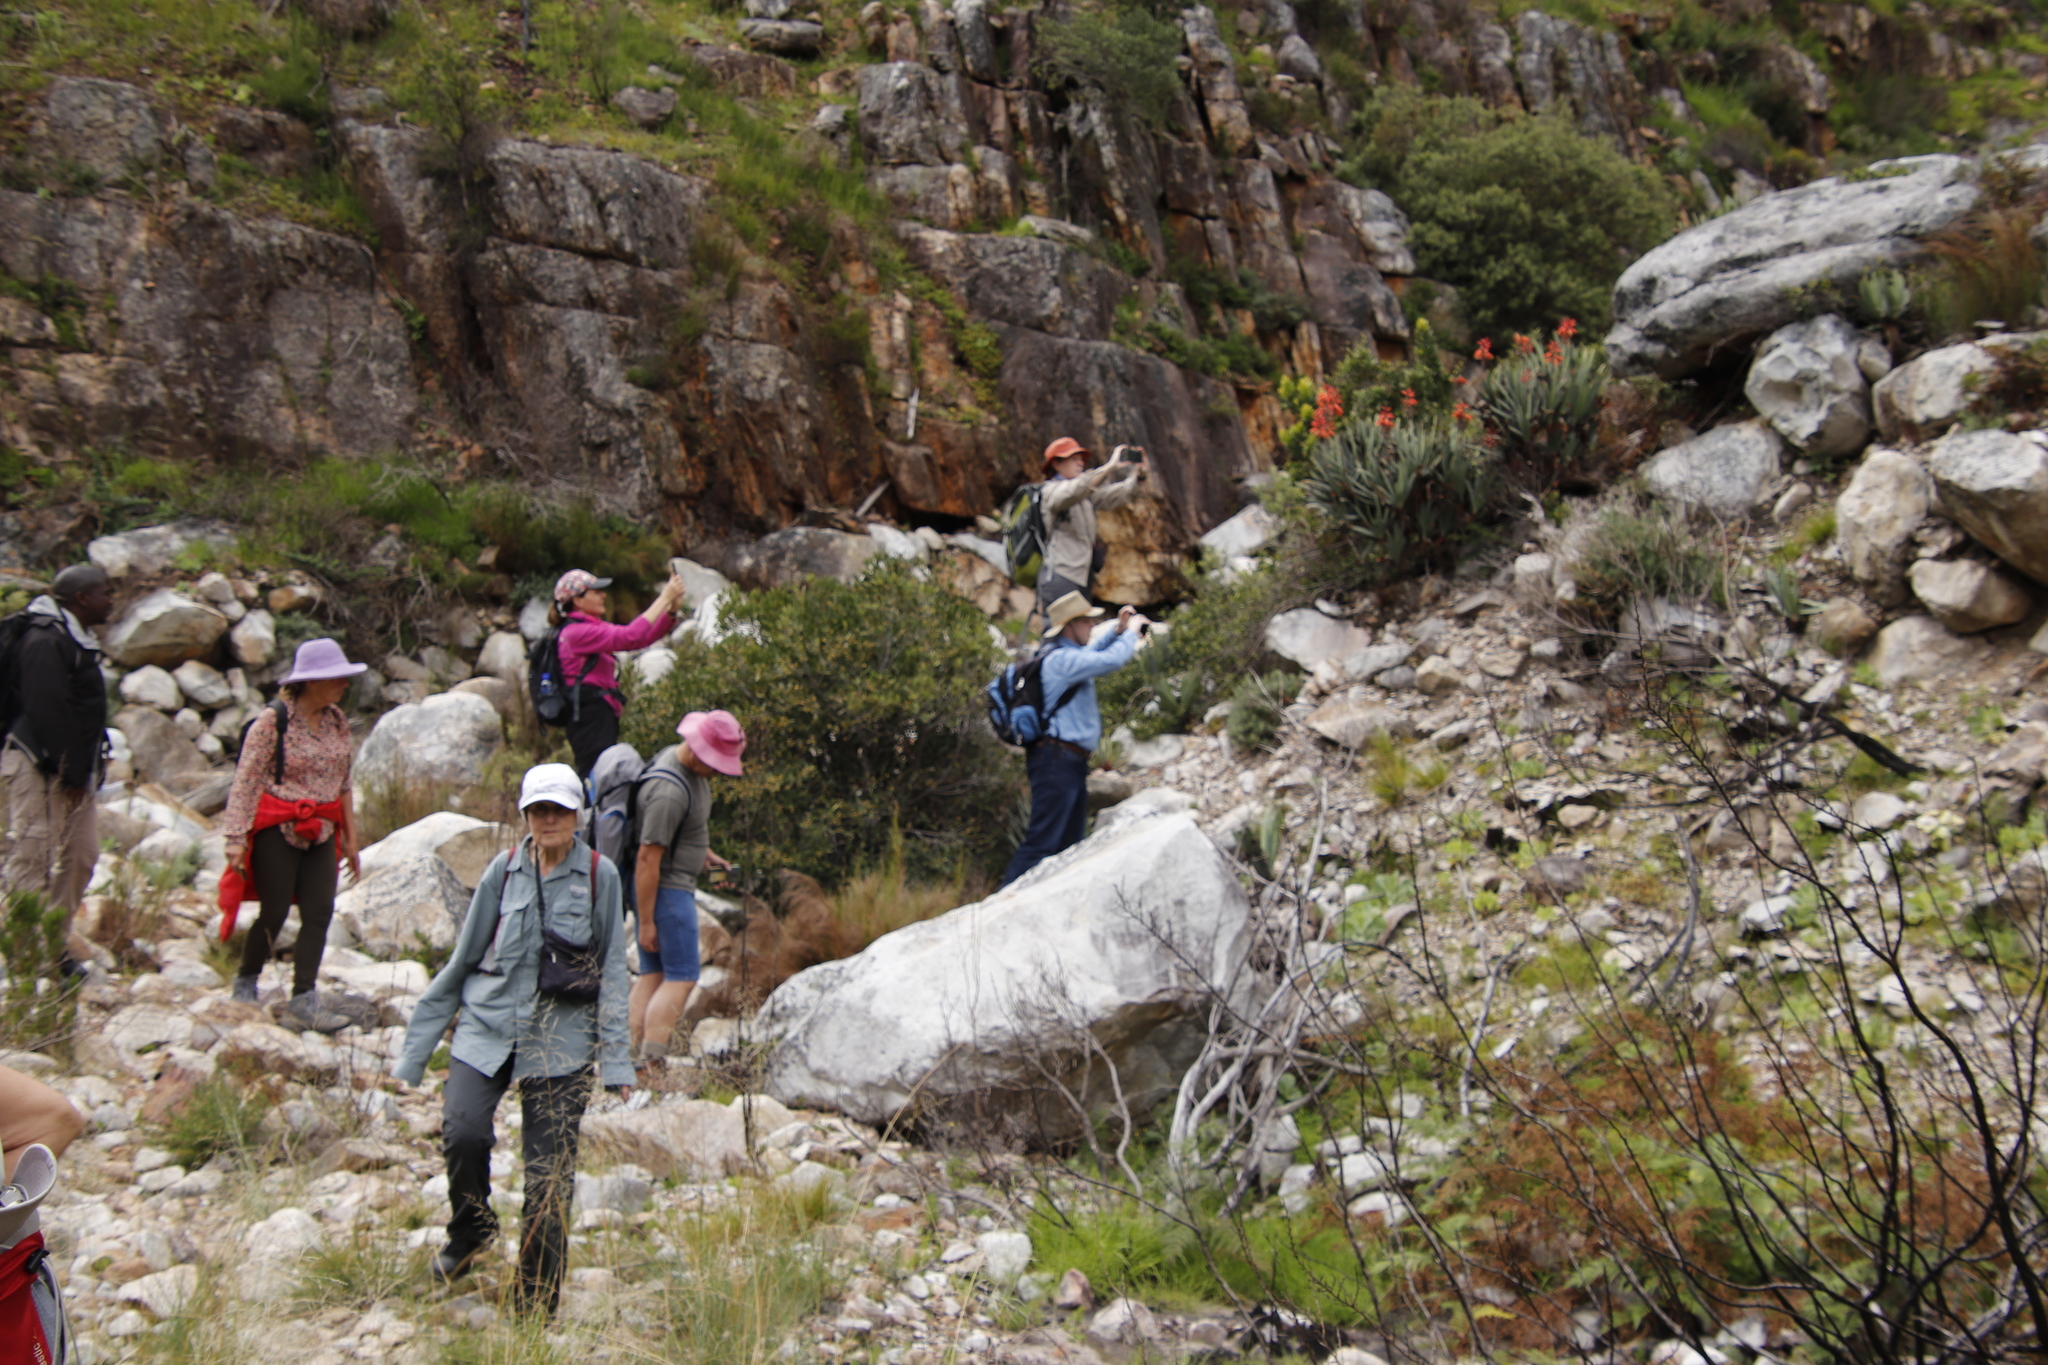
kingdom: Plantae
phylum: Tracheophyta
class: Liliopsida
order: Asparagales
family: Asphodelaceae
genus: Kumara
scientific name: Kumara plicatilis
